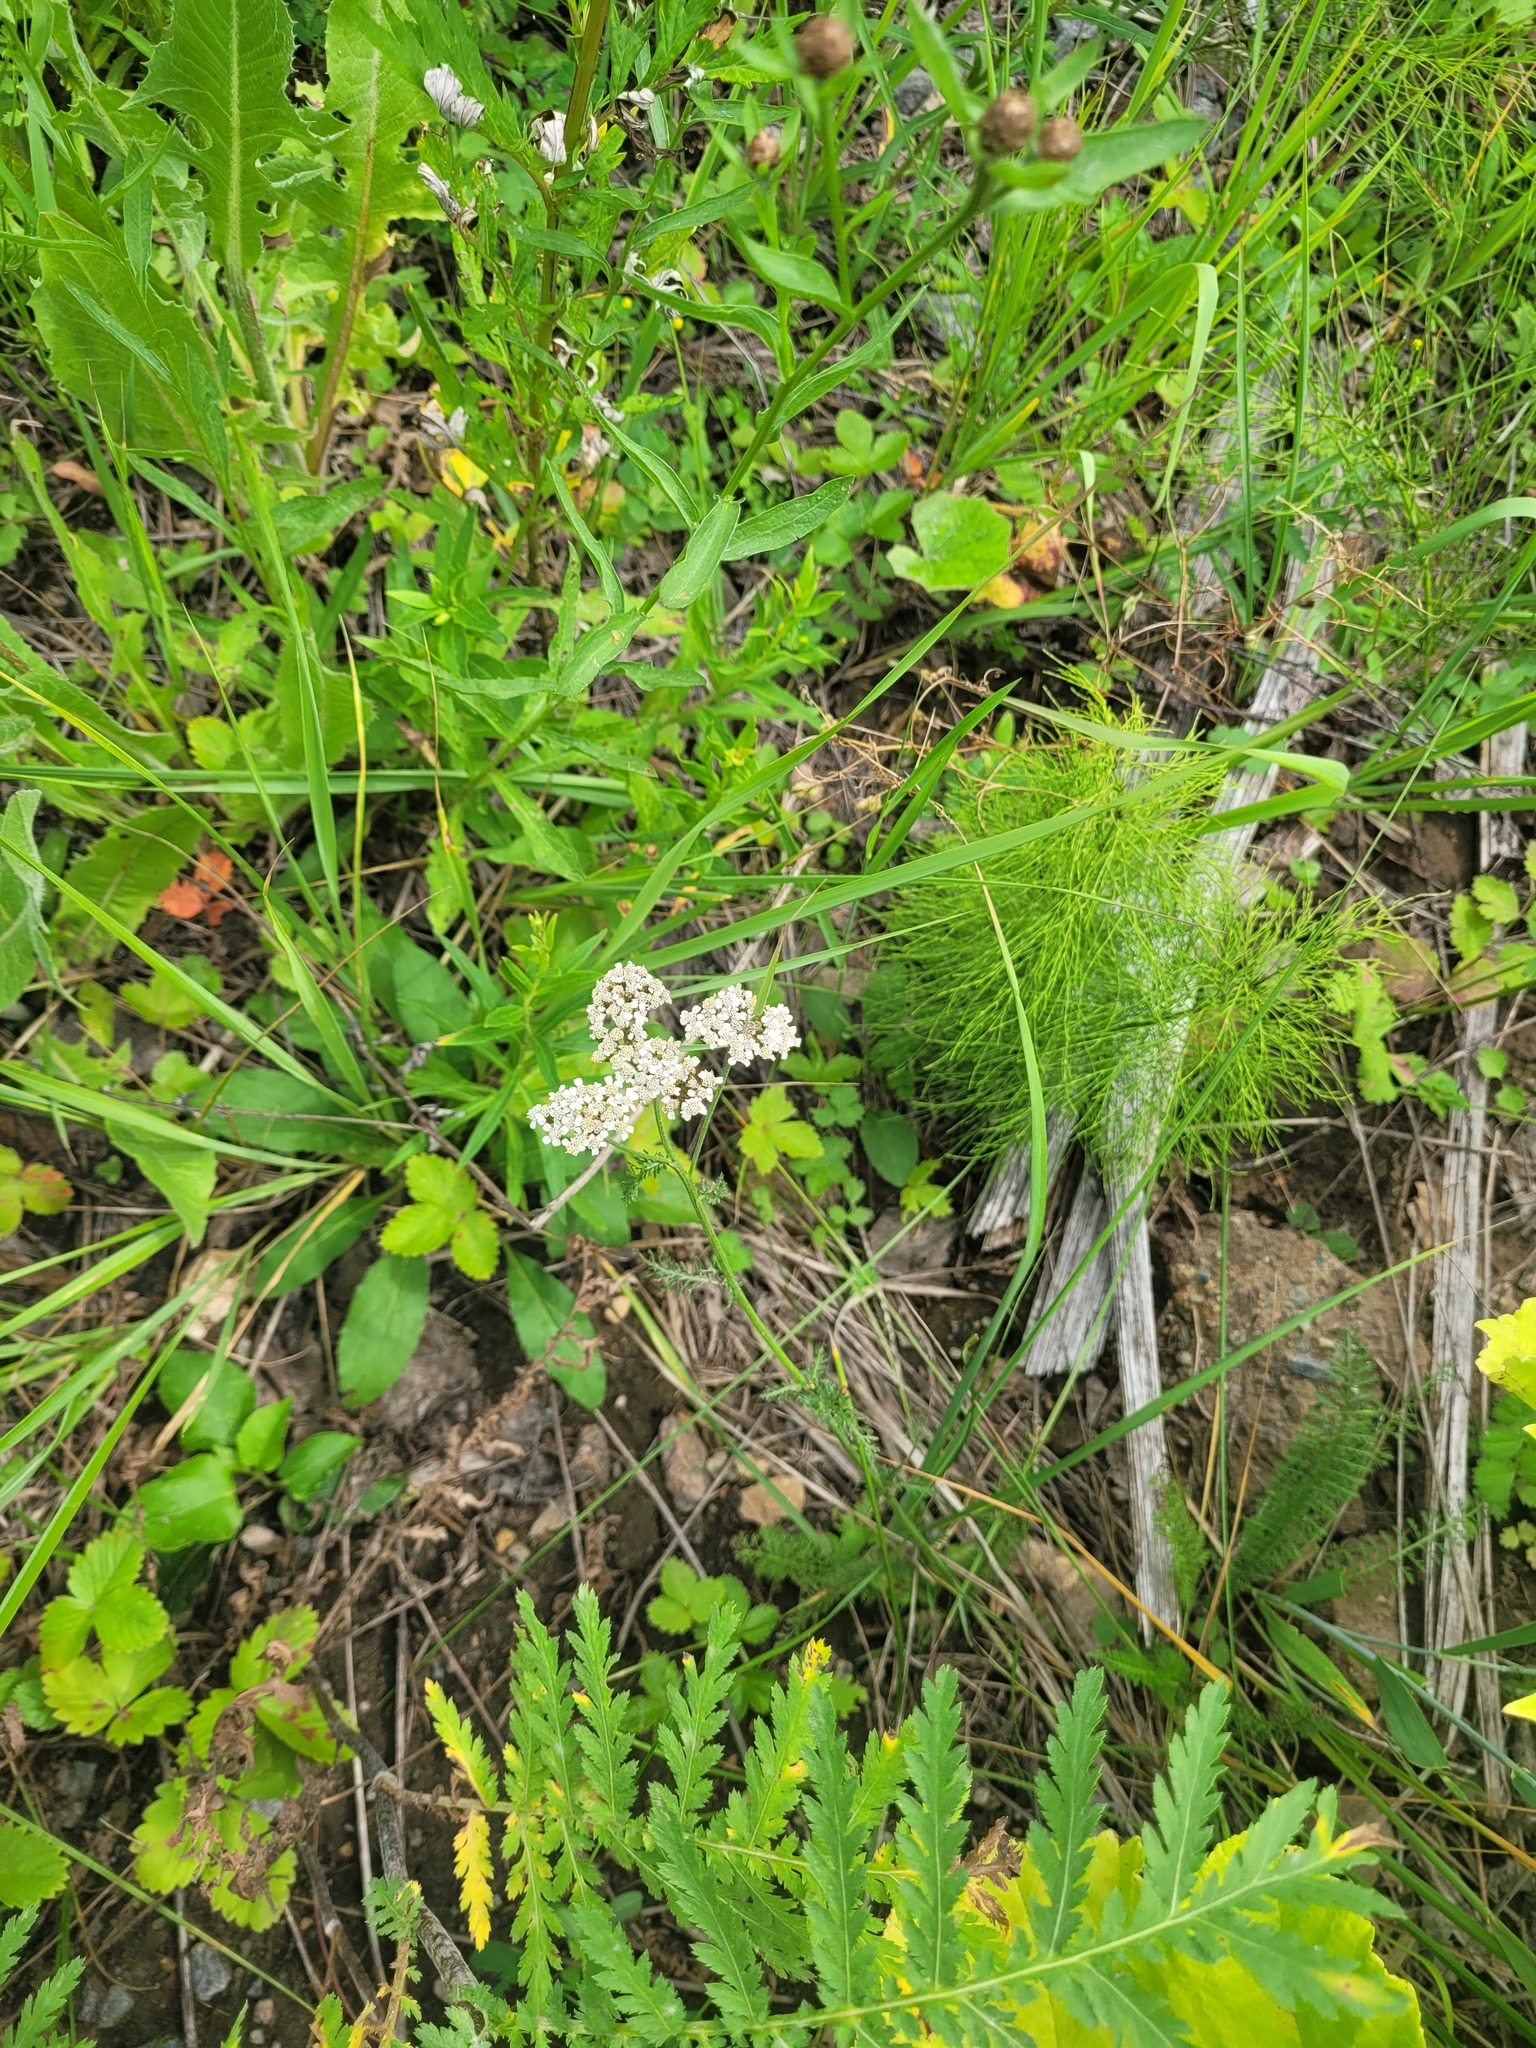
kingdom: Plantae
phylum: Tracheophyta
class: Magnoliopsida
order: Asterales
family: Asteraceae
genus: Achillea
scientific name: Achillea millefolium
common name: Yarrow
